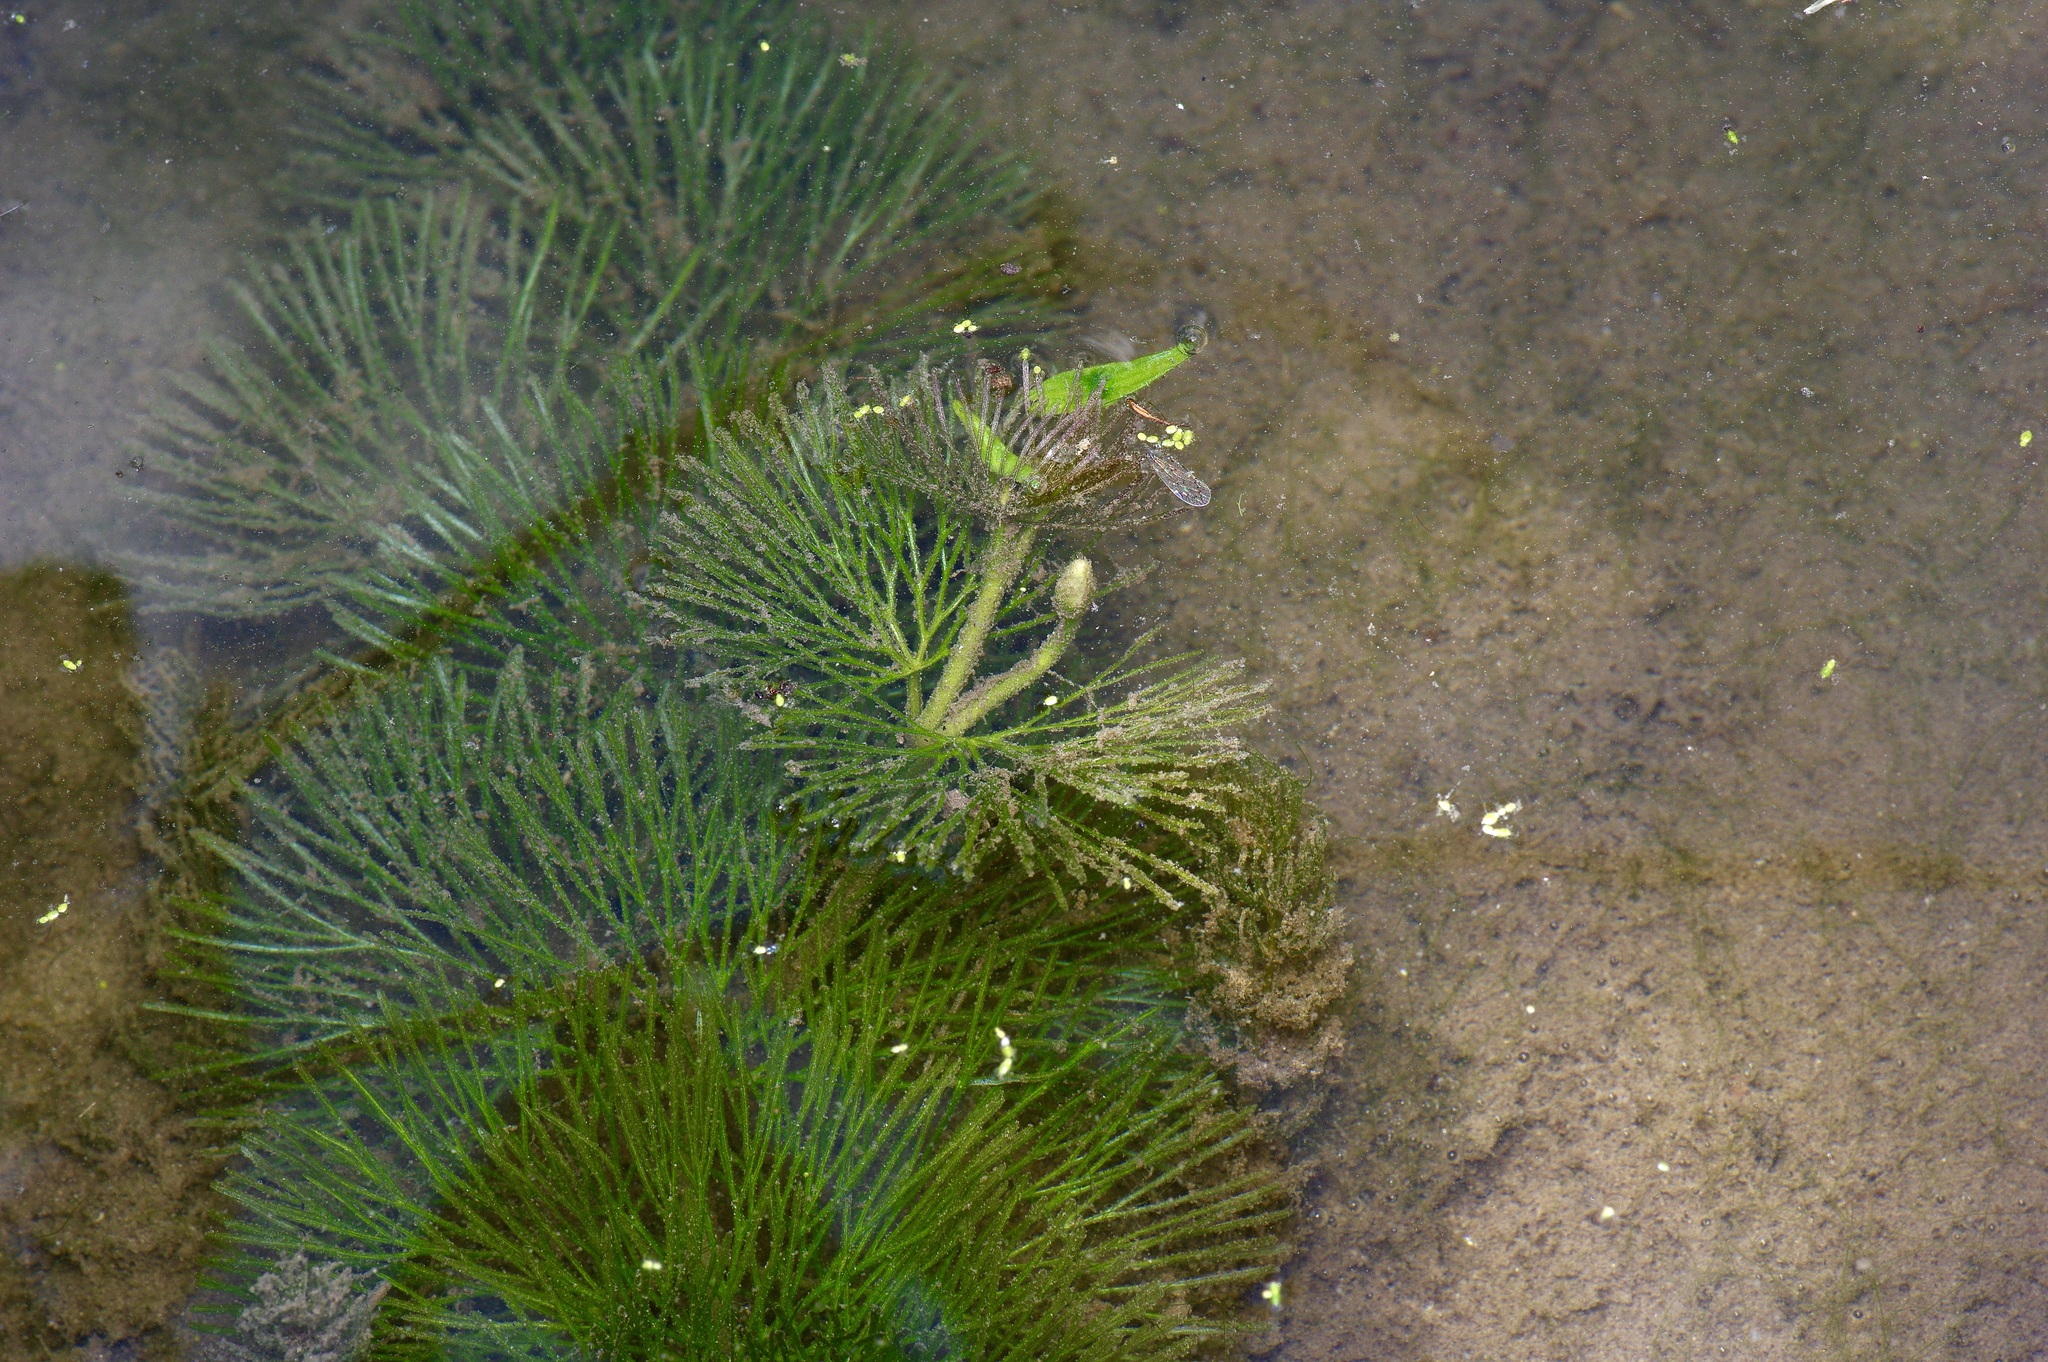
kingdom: Plantae
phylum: Tracheophyta
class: Magnoliopsida
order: Nymphaeales
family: Cabombaceae
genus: Cabomba
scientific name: Cabomba caroliniana
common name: Fanwort
